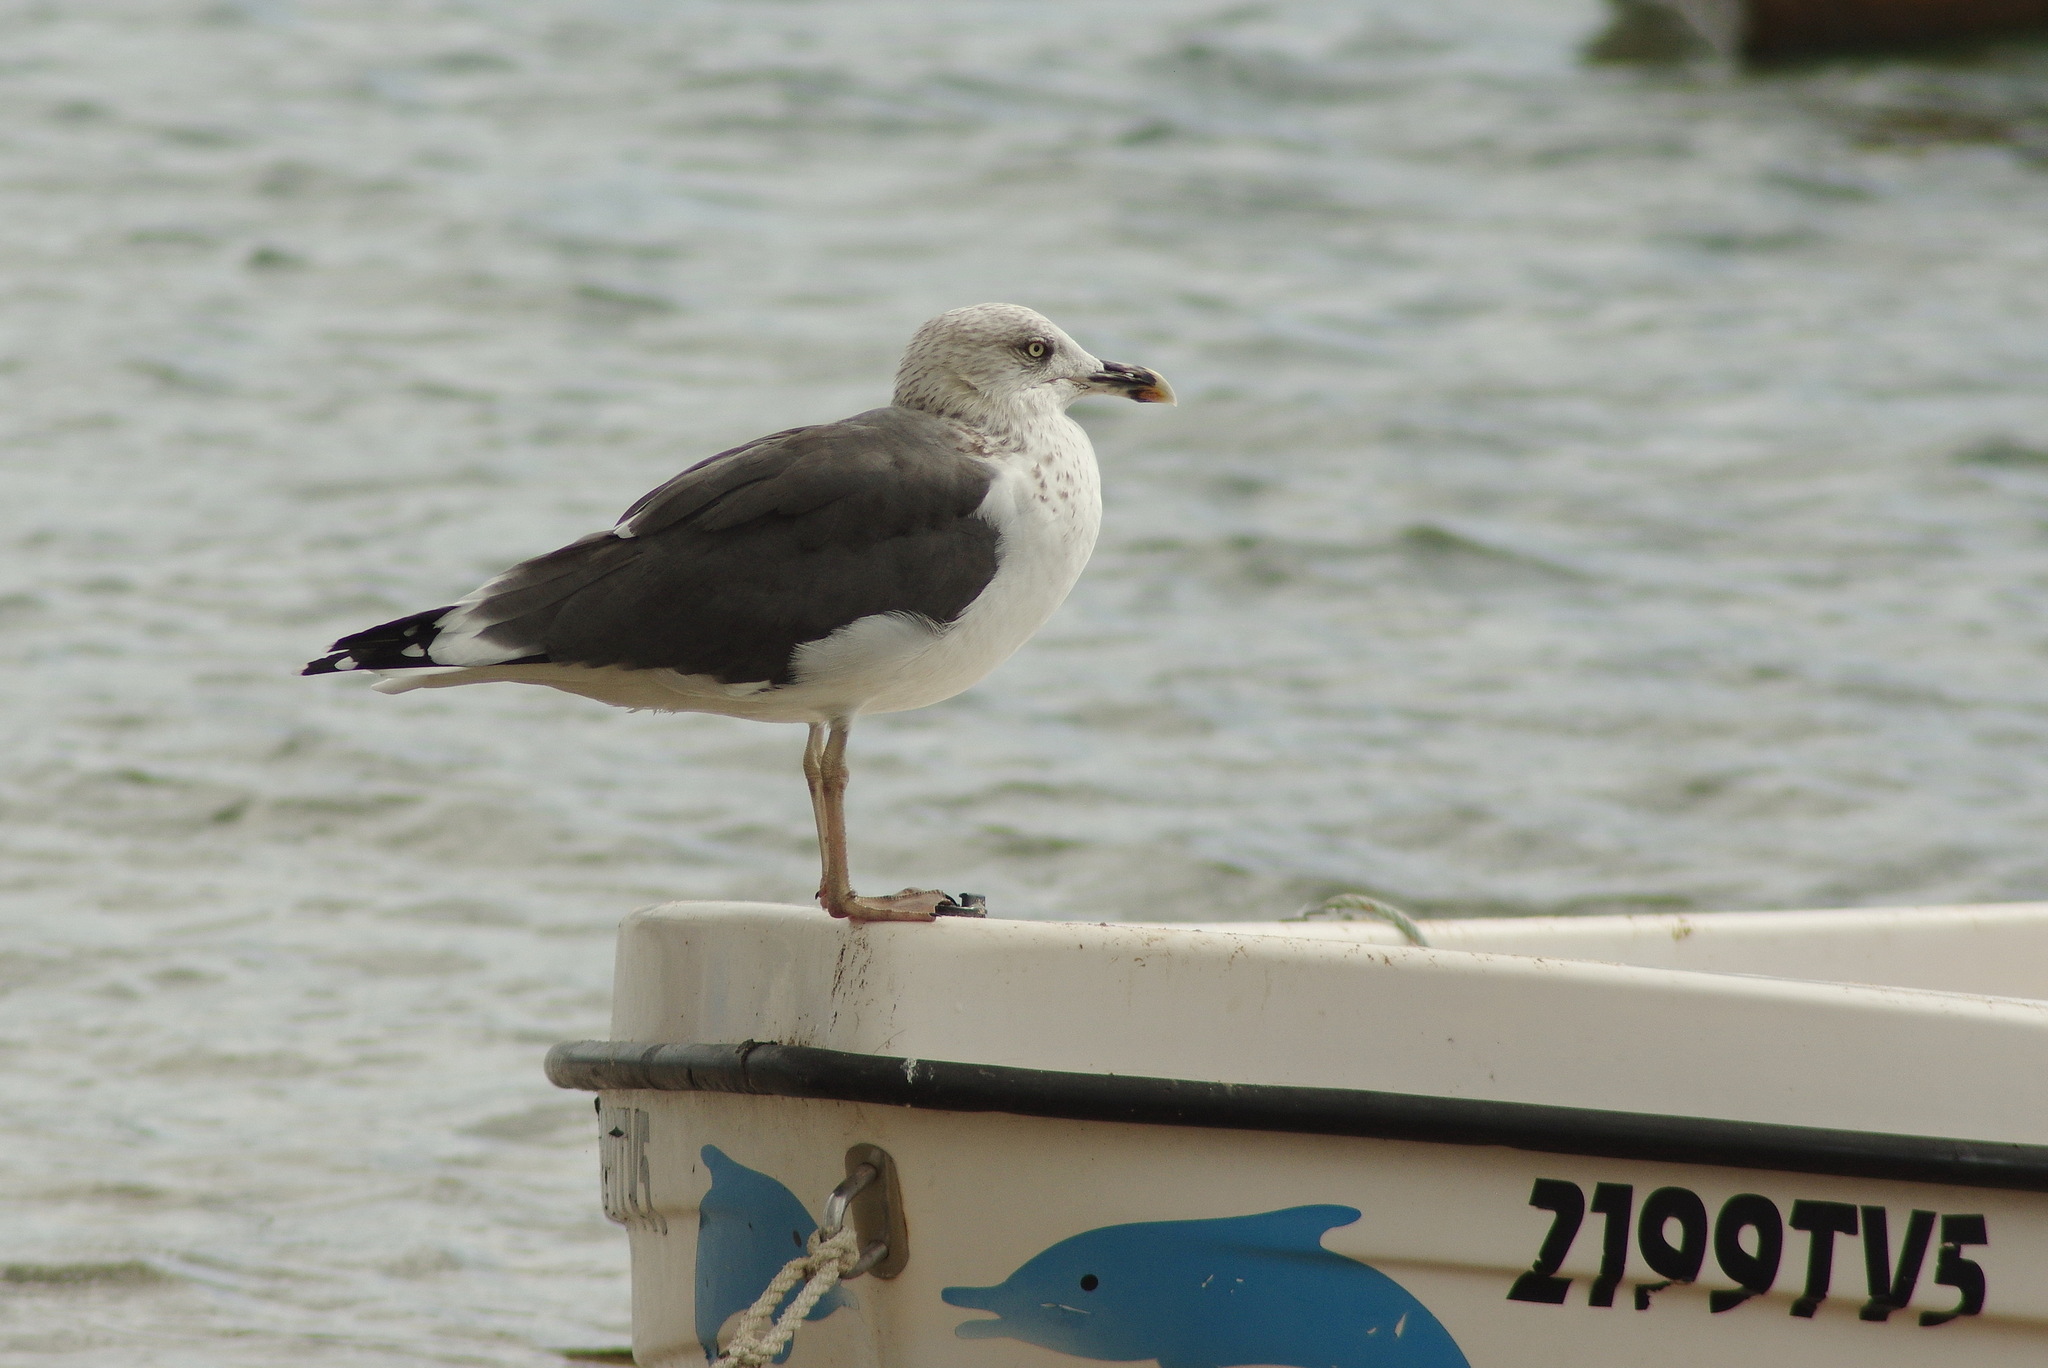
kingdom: Animalia
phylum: Chordata
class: Aves
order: Charadriiformes
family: Laridae
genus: Larus
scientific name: Larus fuscus
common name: Lesser black-backed gull
